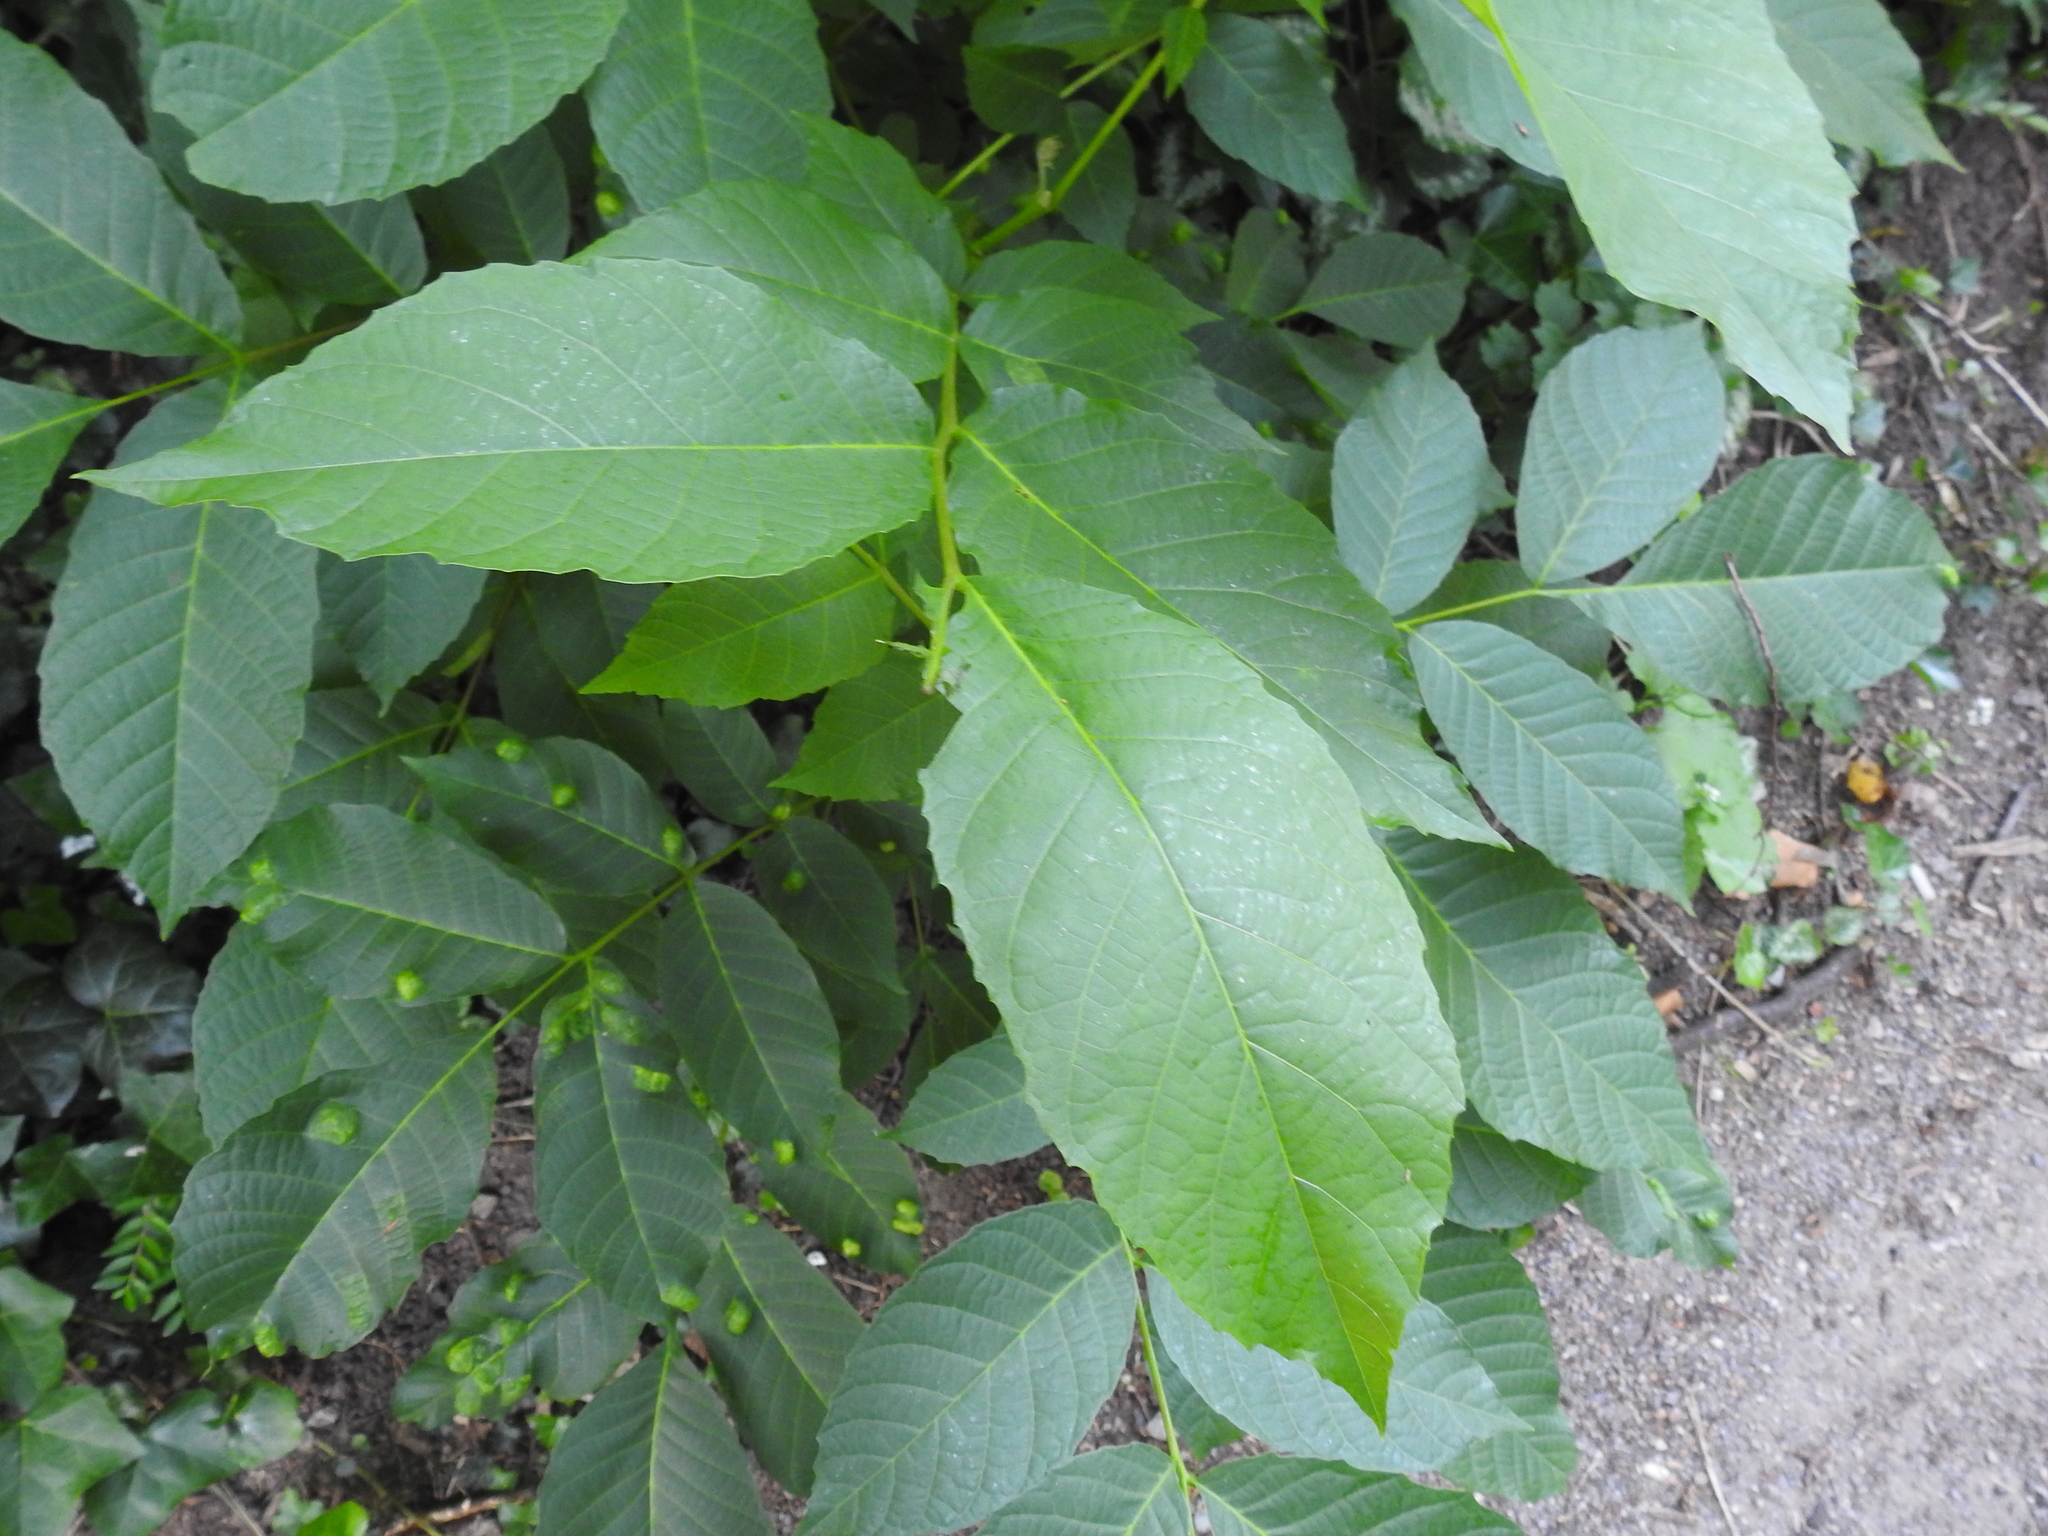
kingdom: Plantae
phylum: Tracheophyta
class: Magnoliopsida
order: Fagales
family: Juglandaceae
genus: Juglans
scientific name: Juglans regia
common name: Walnut
